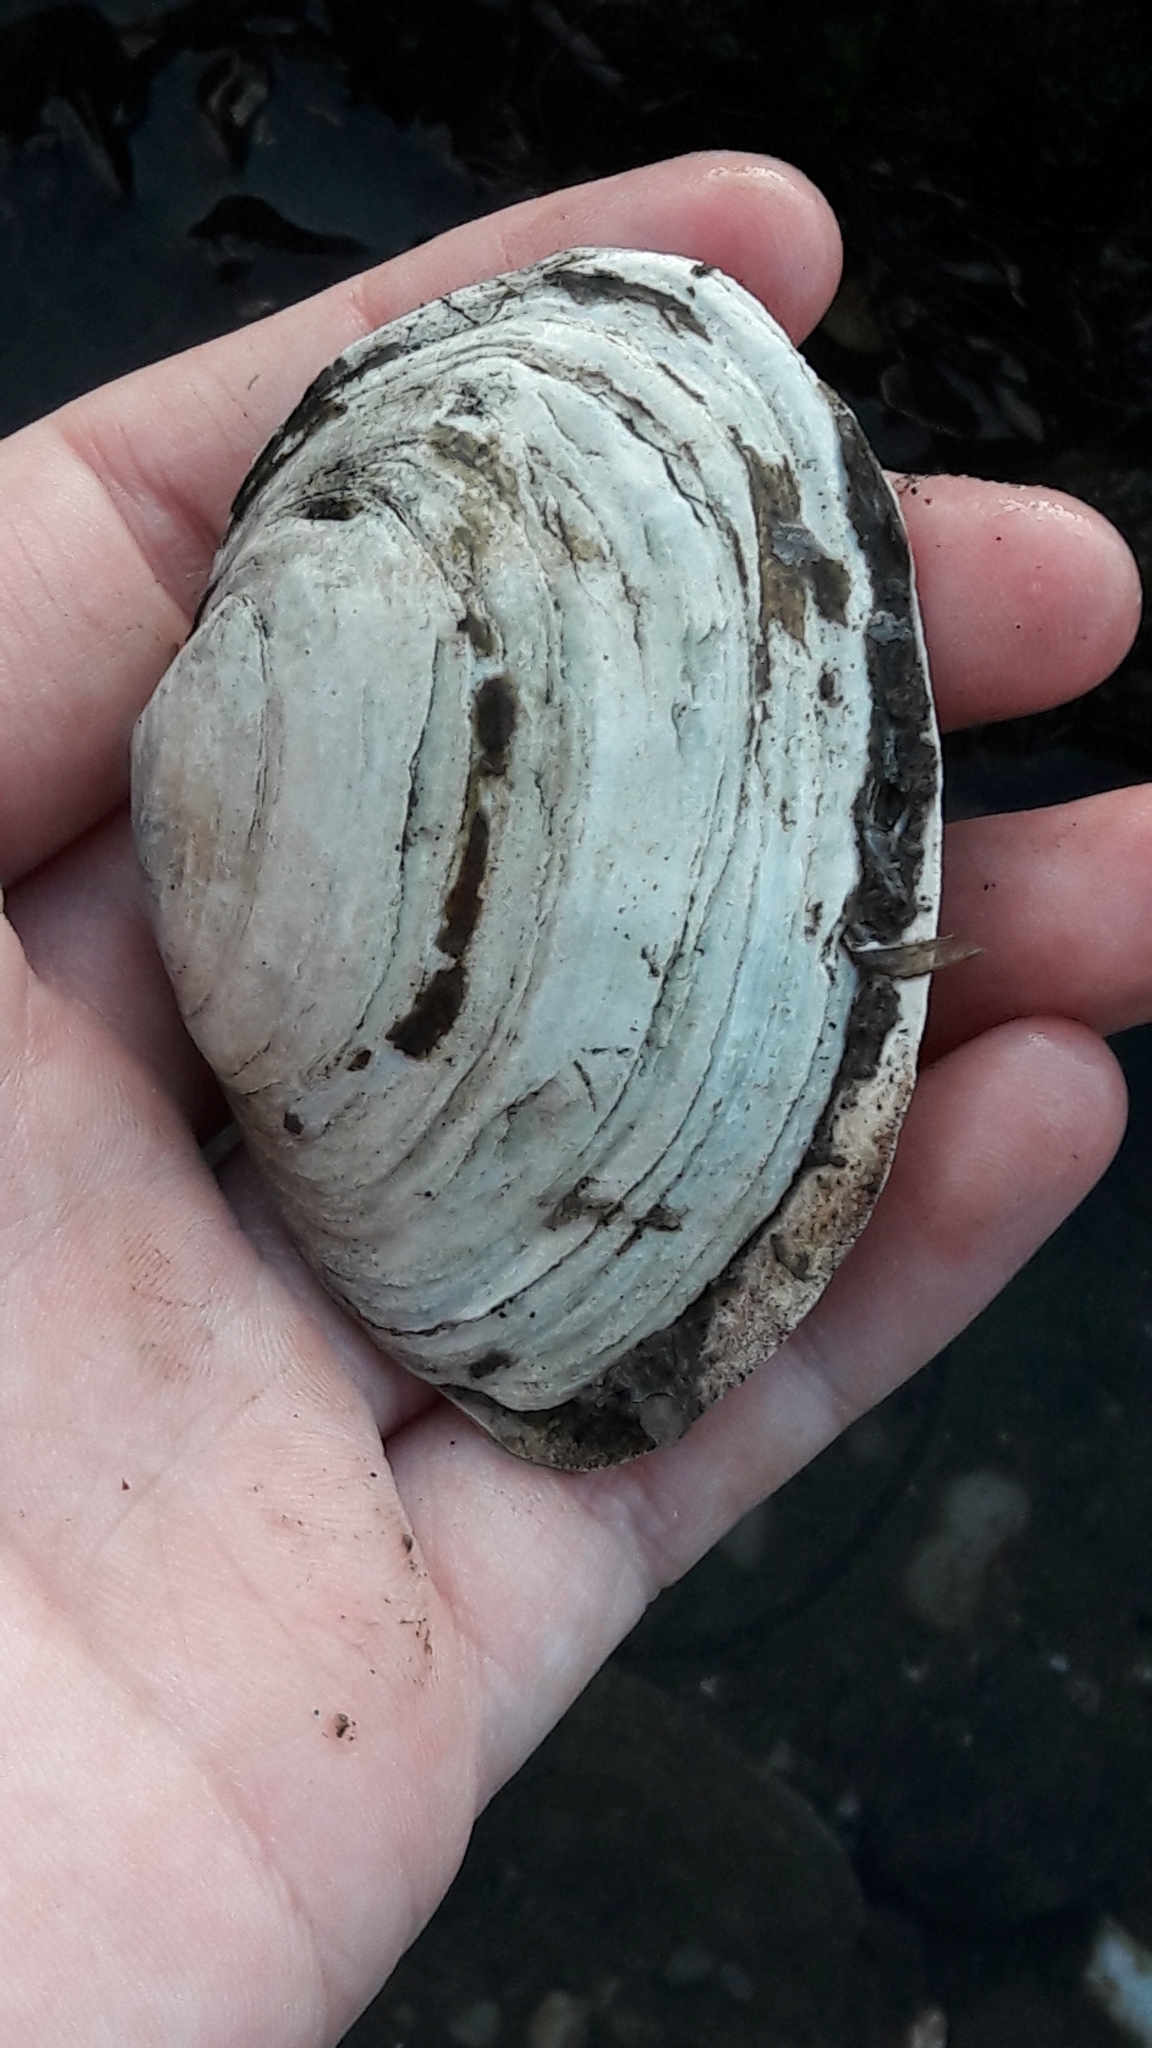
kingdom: Animalia
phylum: Mollusca
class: Bivalvia
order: Myida
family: Myidae
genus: Mya
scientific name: Mya arenaria
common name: Soft-shelled clam
